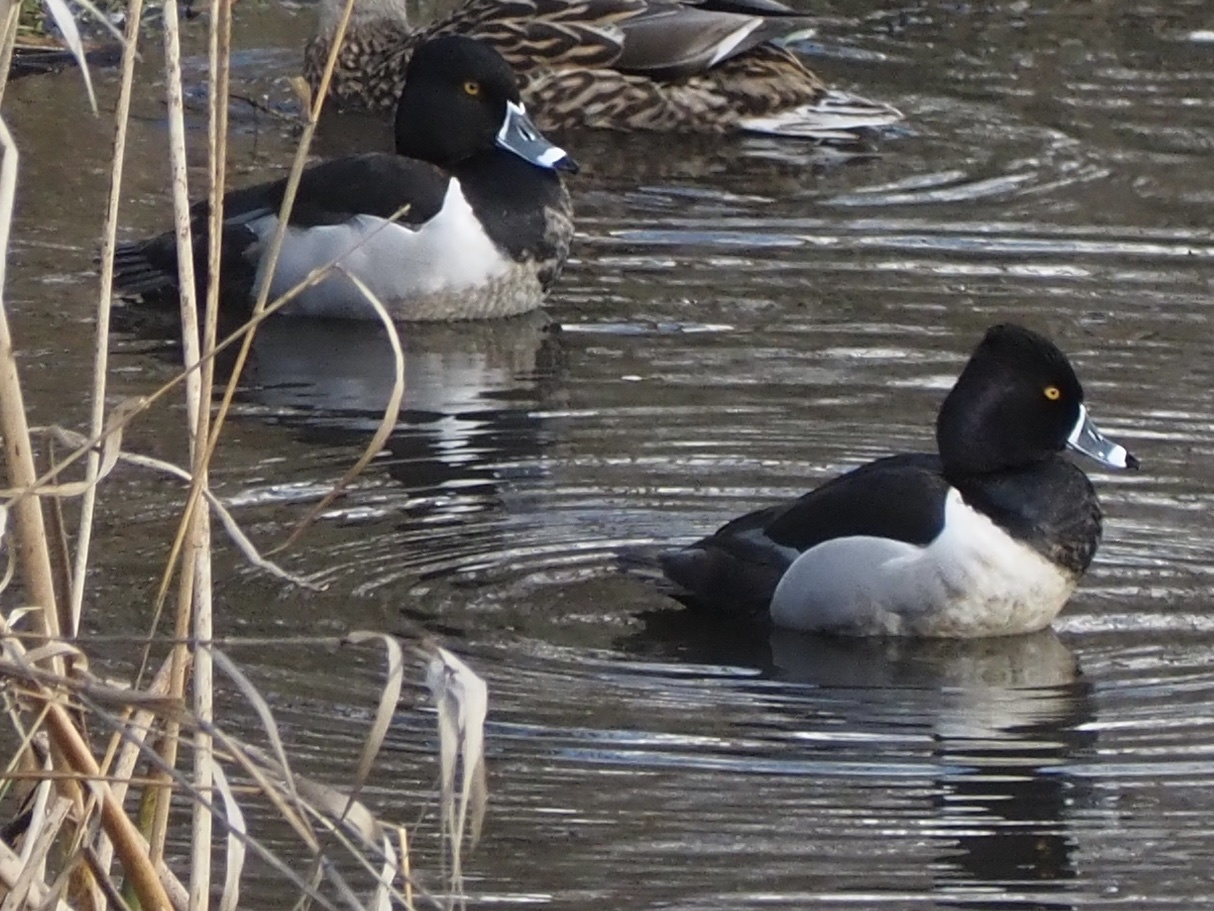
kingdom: Animalia
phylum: Chordata
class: Aves
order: Anseriformes
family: Anatidae
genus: Aythya
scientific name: Aythya collaris
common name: Ring-necked duck
